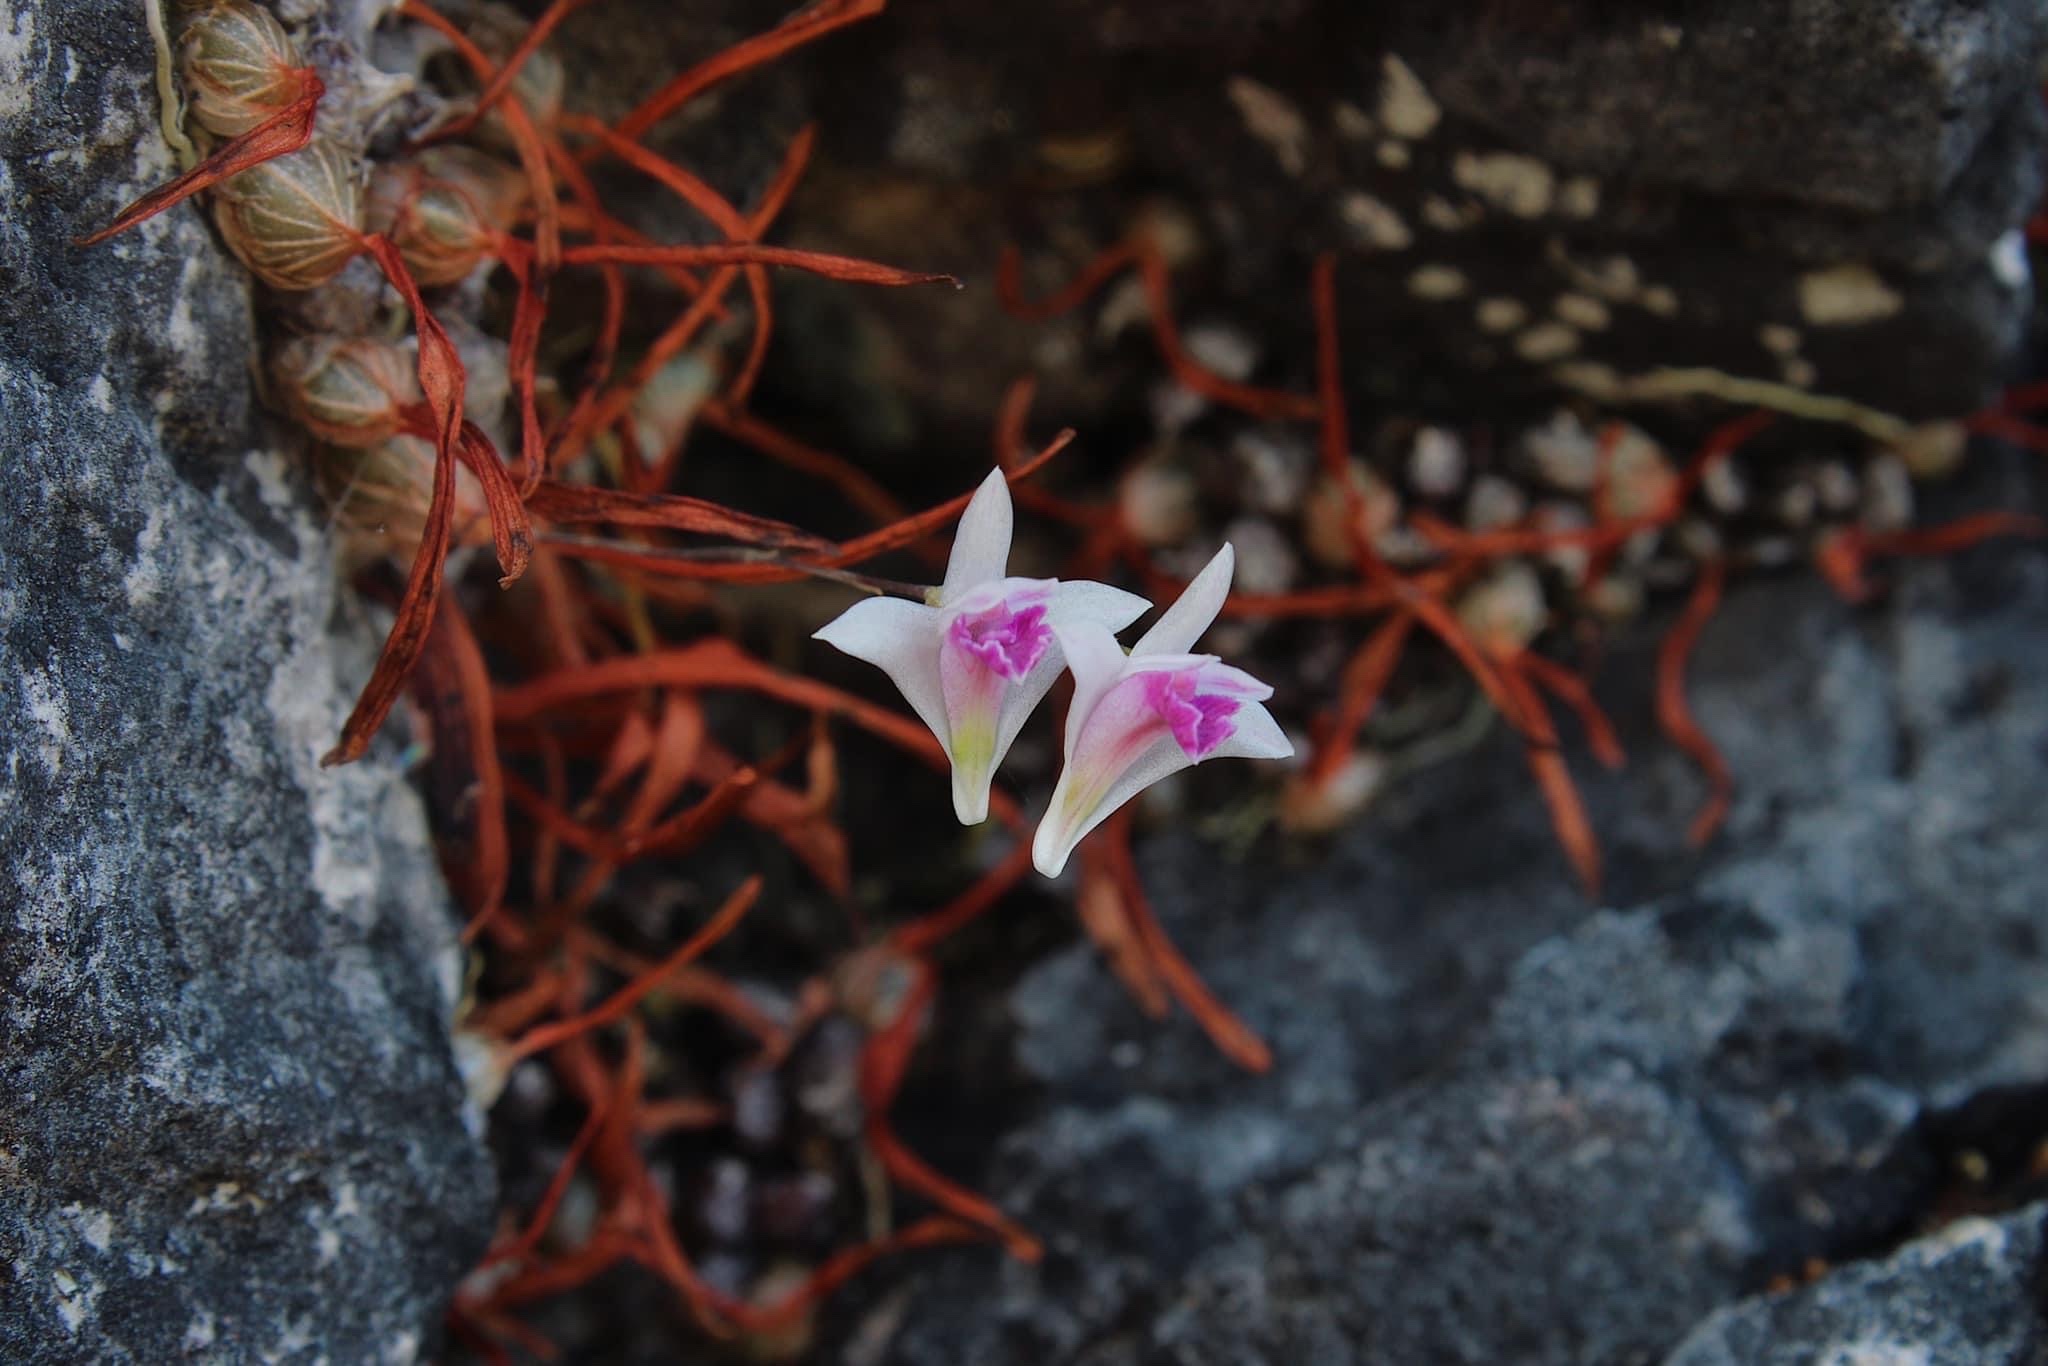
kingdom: Plantae
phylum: Tracheophyta
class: Liliopsida
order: Asparagales
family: Orchidaceae
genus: Dendrobium
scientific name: Dendrobium elliottianum
